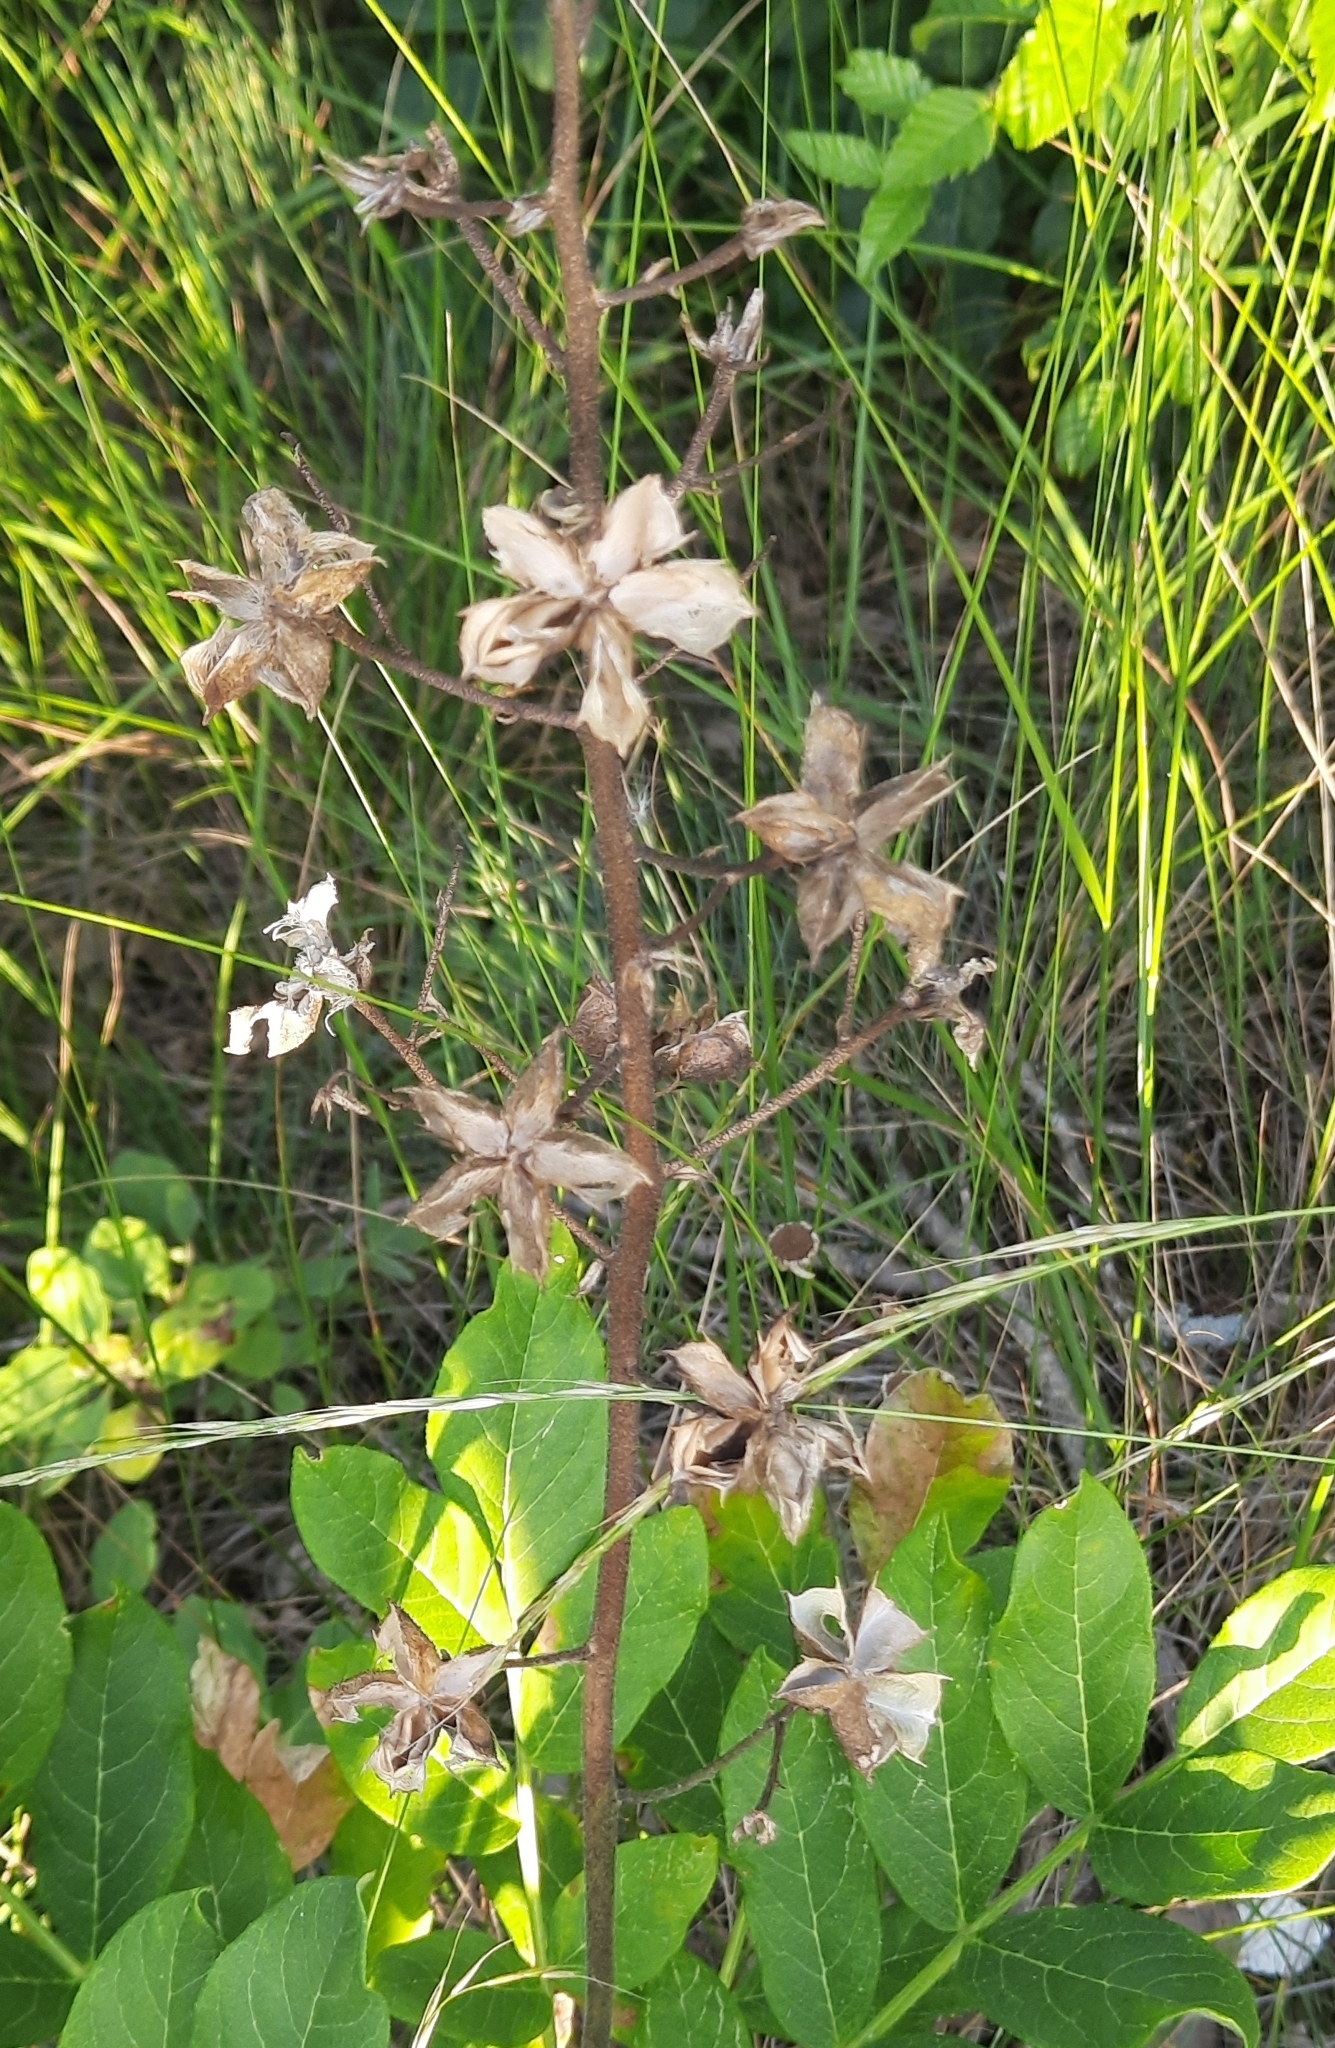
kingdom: Plantae
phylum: Tracheophyta
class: Magnoliopsida
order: Sapindales
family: Rutaceae
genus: Dictamnus
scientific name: Dictamnus albus
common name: Gasplant
